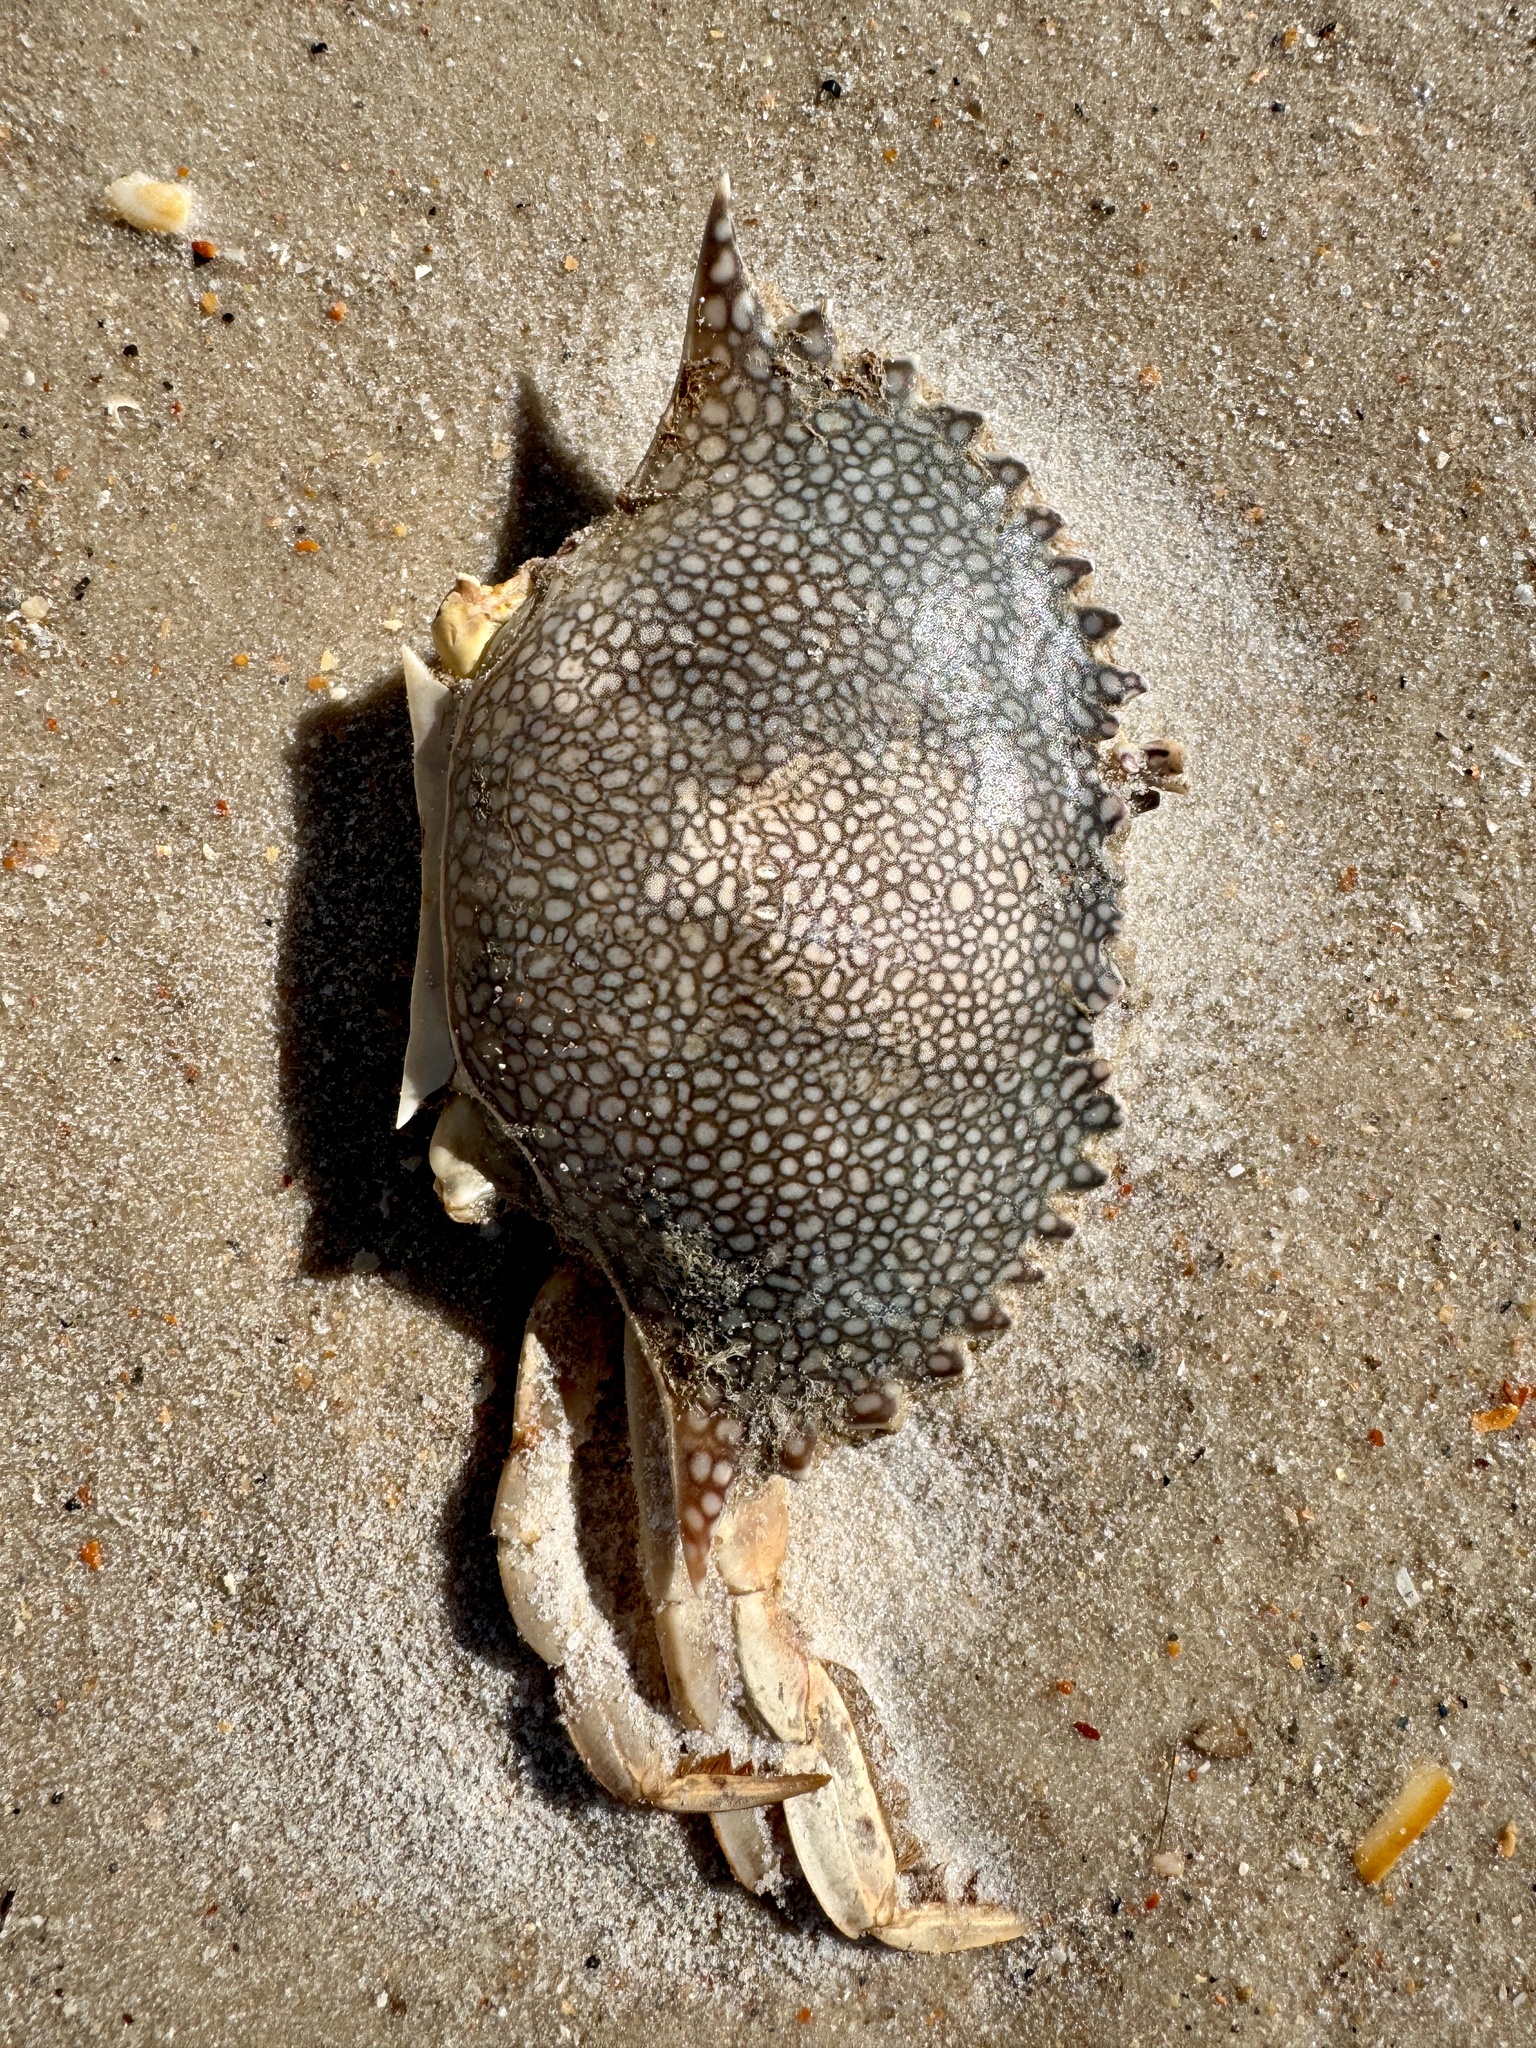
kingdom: Animalia
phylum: Arthropoda
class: Malacostraca
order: Decapoda
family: Portunidae
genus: Arenaeus
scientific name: Arenaeus cribrarius
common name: Speckled crab
